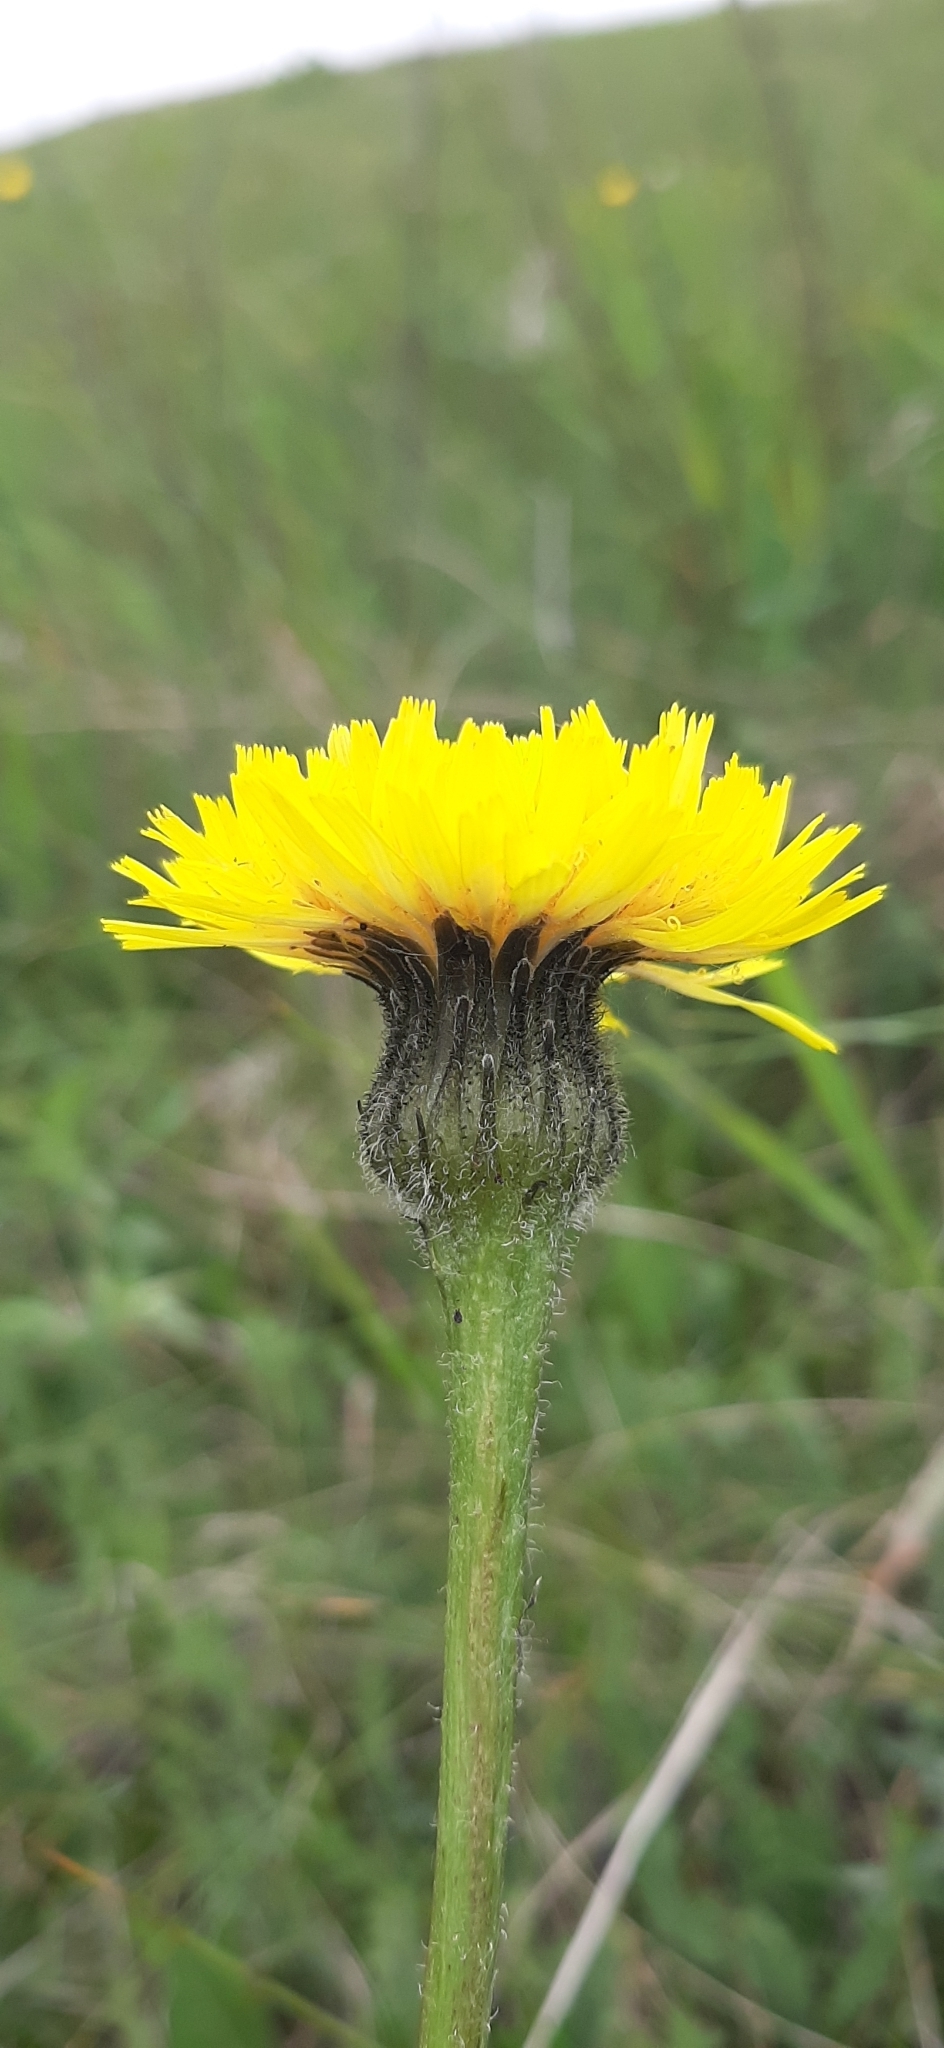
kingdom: Plantae
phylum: Tracheophyta
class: Magnoliopsida
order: Asterales
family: Asteraceae
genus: Trommsdorffia
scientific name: Trommsdorffia maculata
